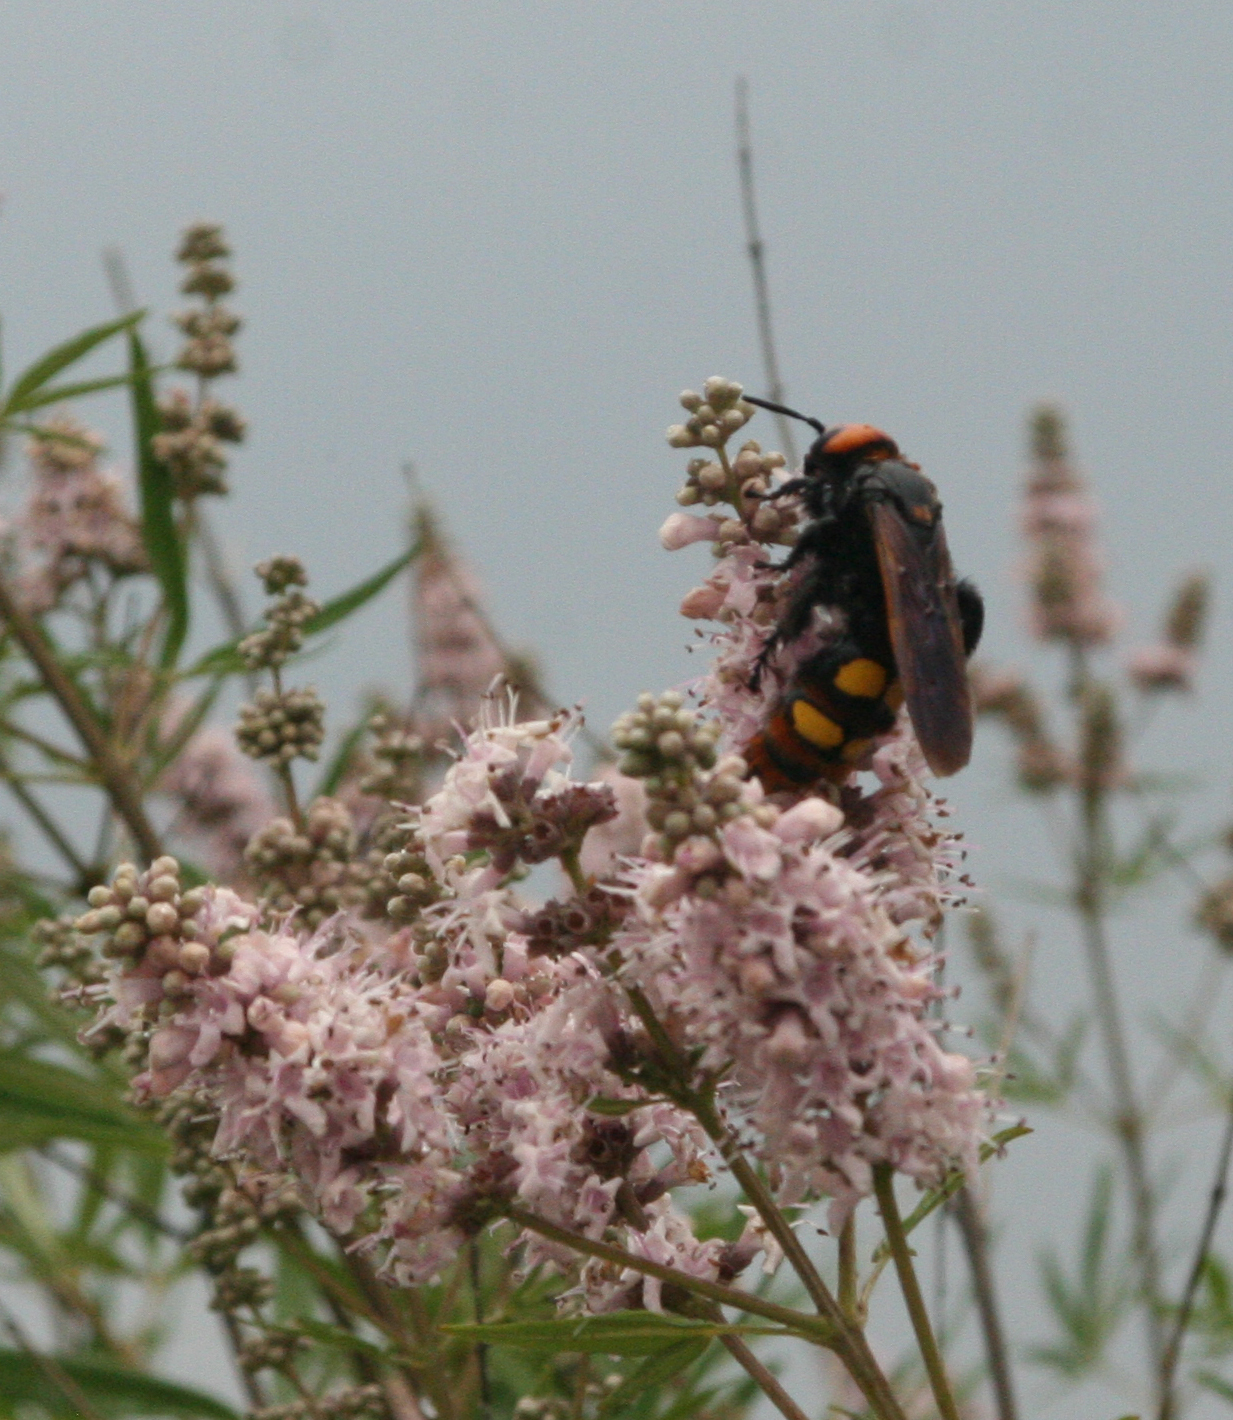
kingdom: Animalia
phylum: Arthropoda
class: Insecta
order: Hymenoptera
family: Scoliidae
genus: Megascolia
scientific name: Megascolia maculata
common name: Mammoth wasp
